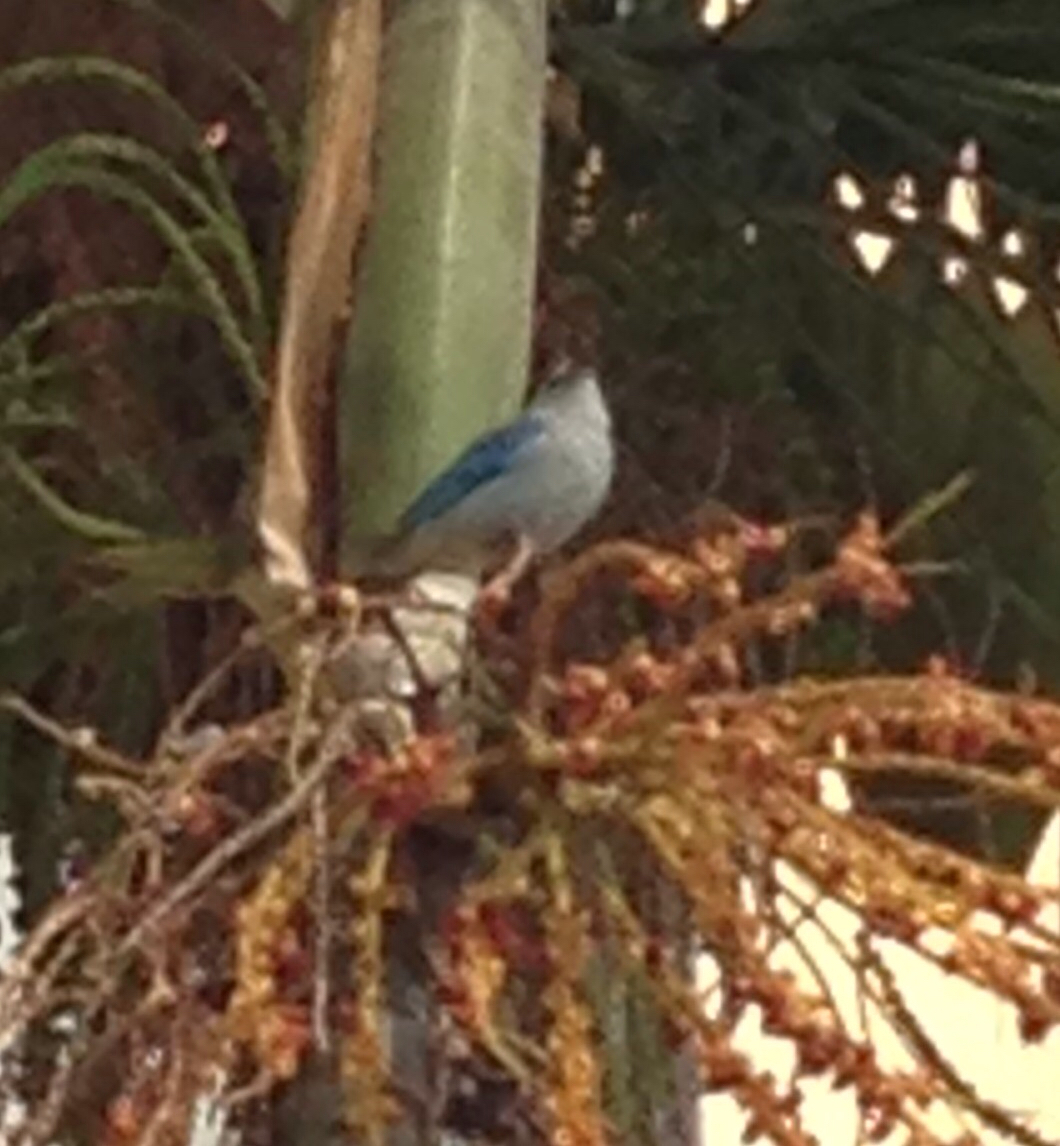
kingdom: Animalia
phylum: Chordata
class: Aves
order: Passeriformes
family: Thraupidae
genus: Thraupis
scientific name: Thraupis episcopus
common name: Blue-grey tanager
